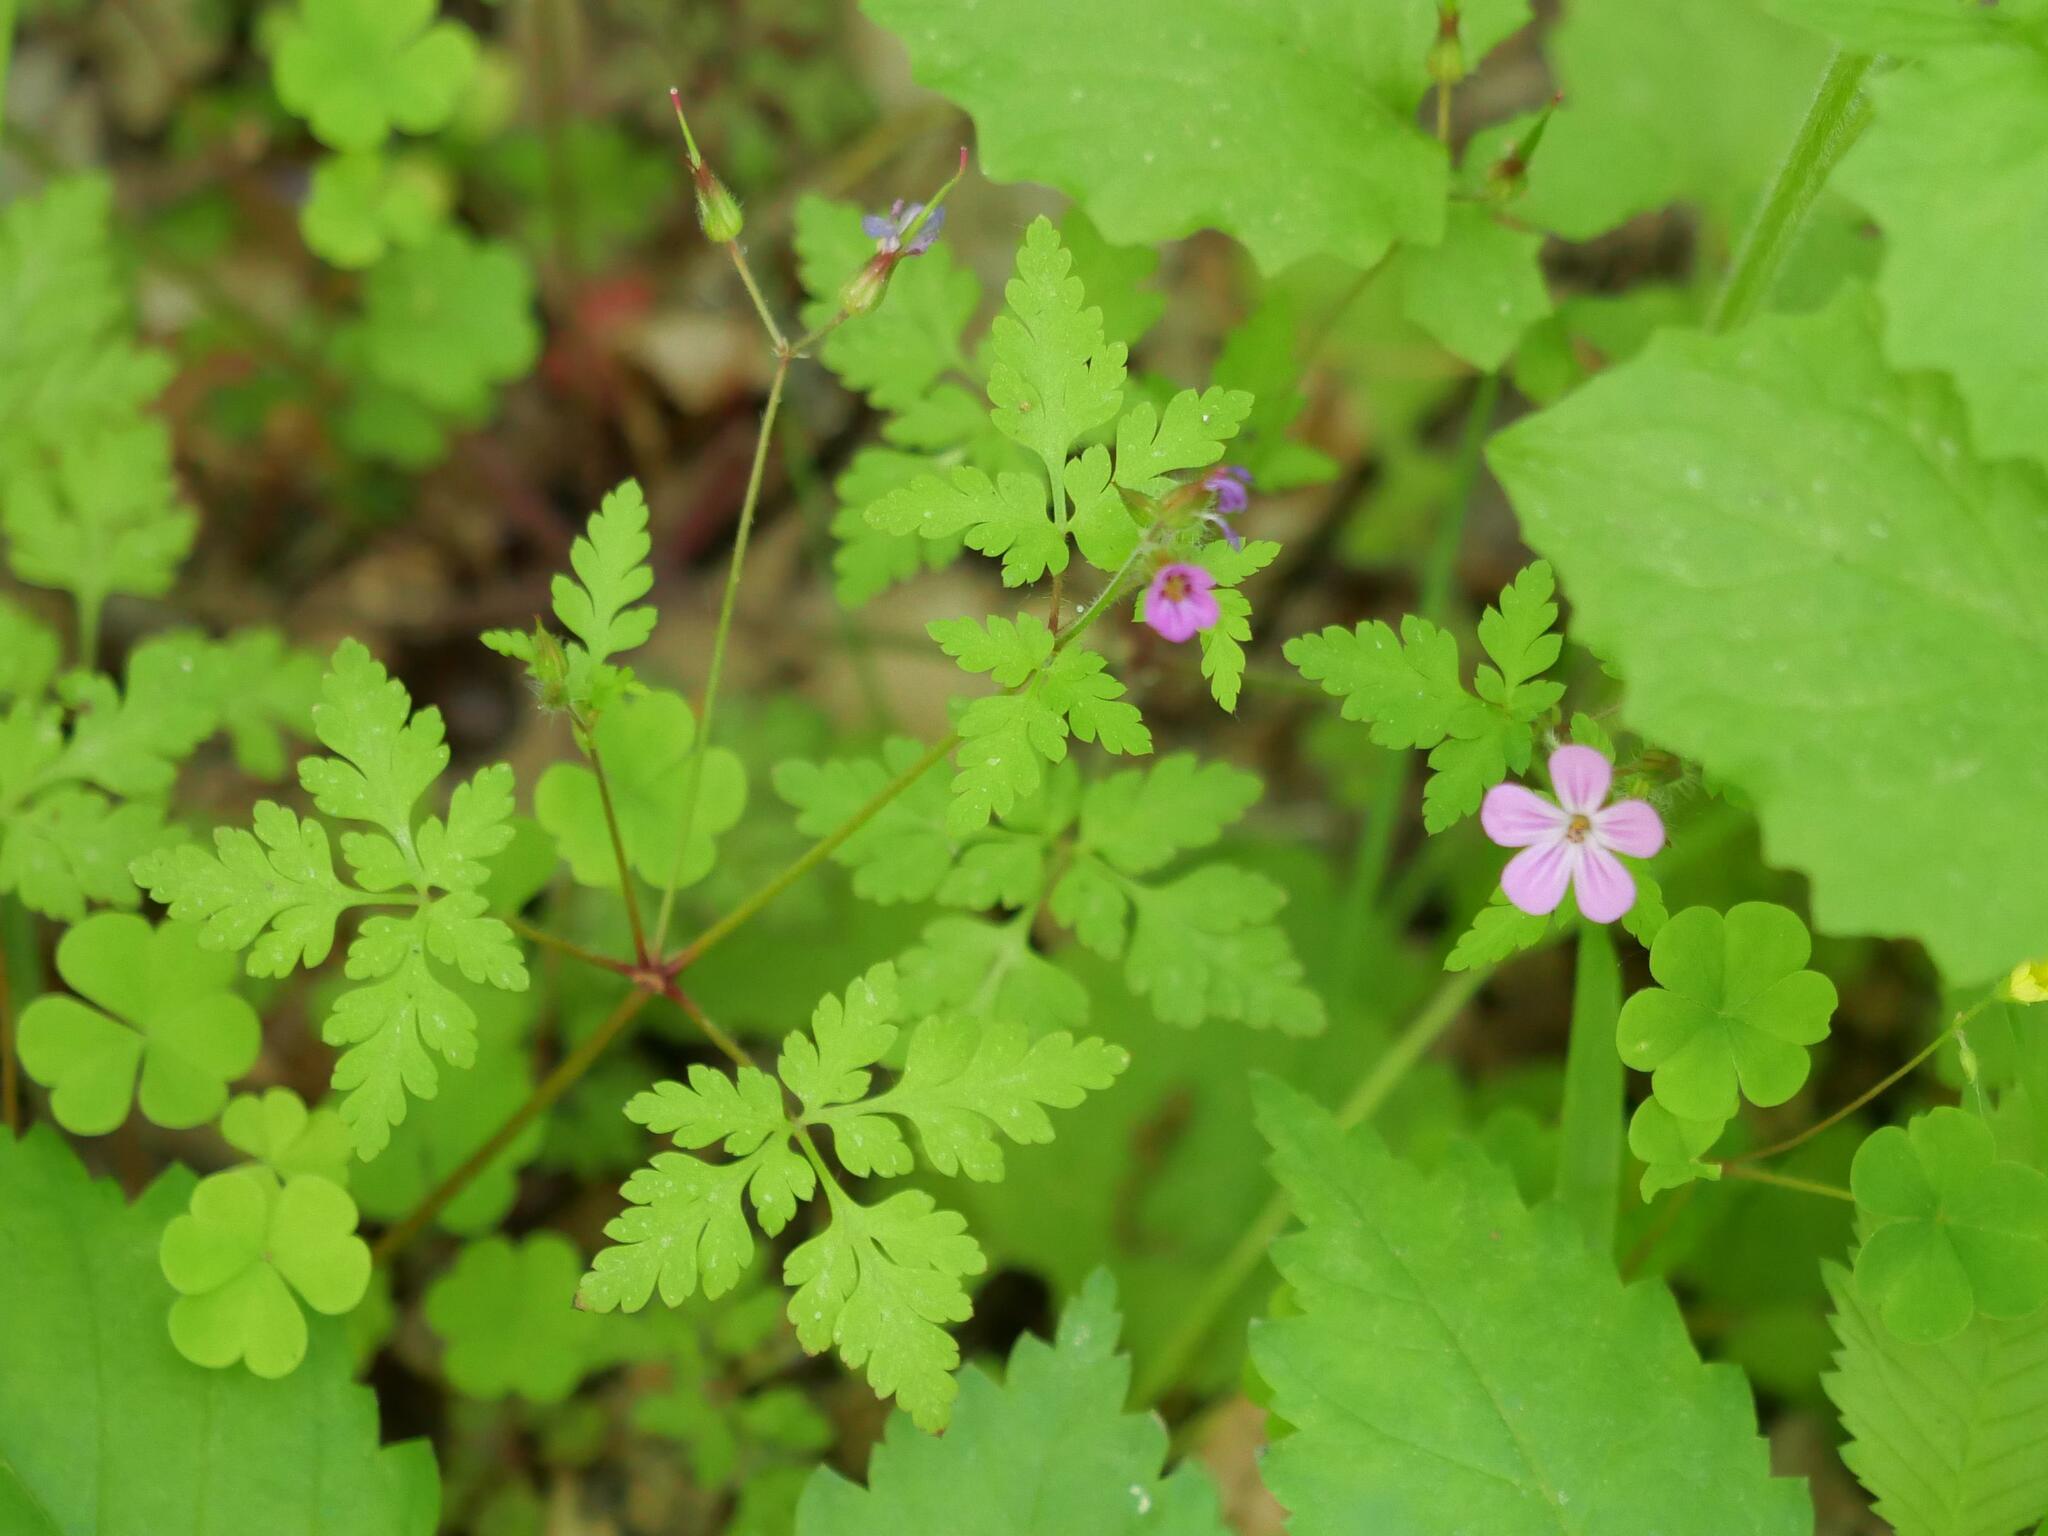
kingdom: Plantae
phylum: Tracheophyta
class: Magnoliopsida
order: Geraniales
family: Geraniaceae
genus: Geranium
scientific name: Geranium robertianum
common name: Herb-robert
